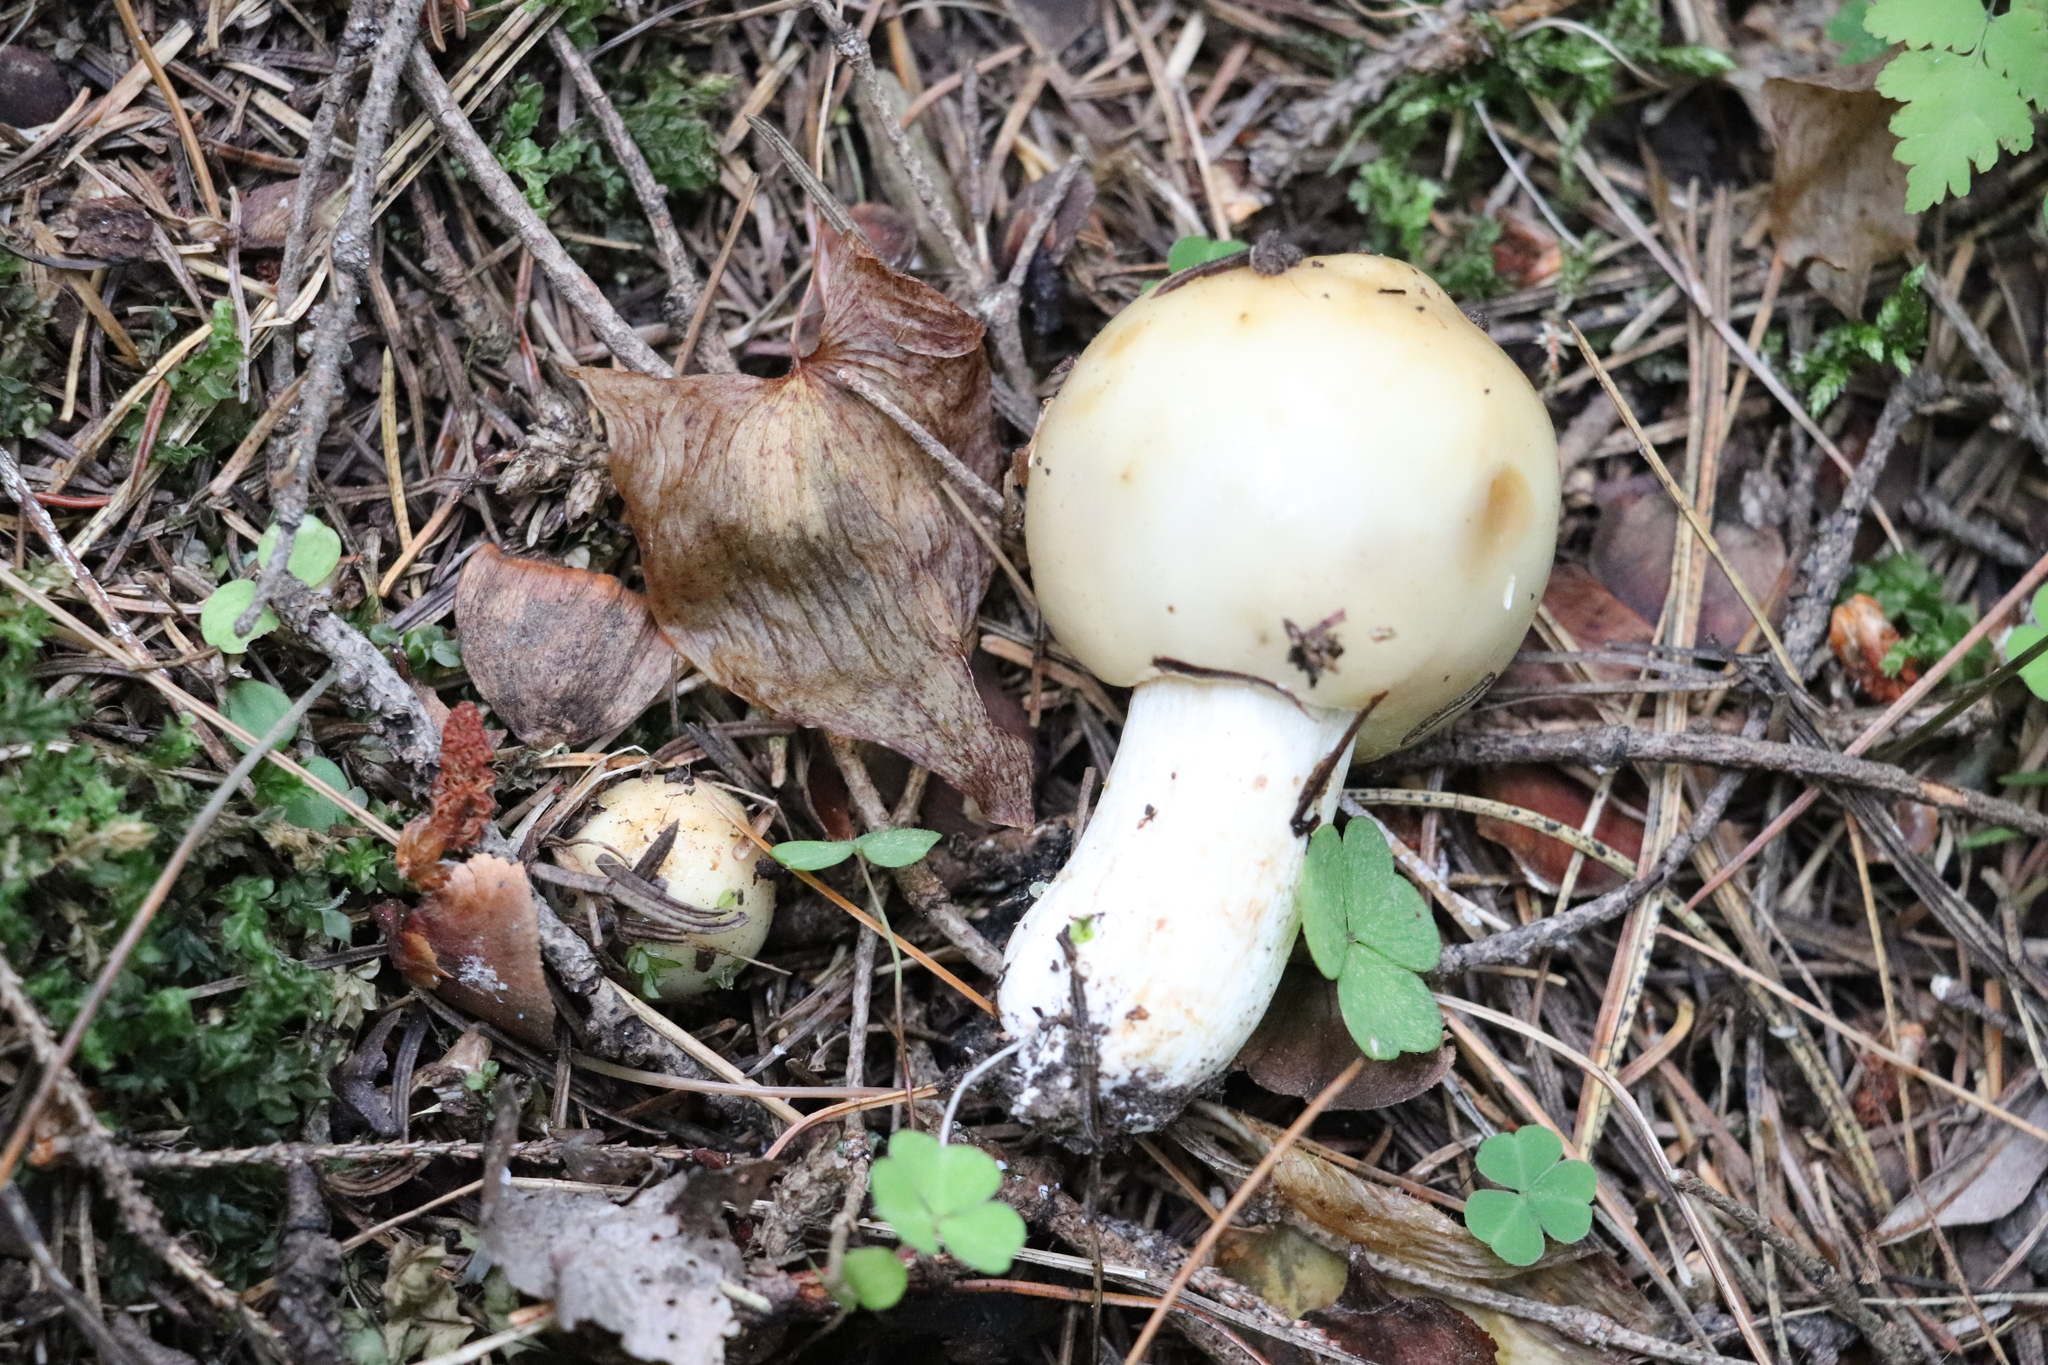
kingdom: Fungi
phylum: Basidiomycota
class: Agaricomycetes
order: Russulales
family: Russulaceae
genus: Russula
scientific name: Russula foetens
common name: Foetid russula
